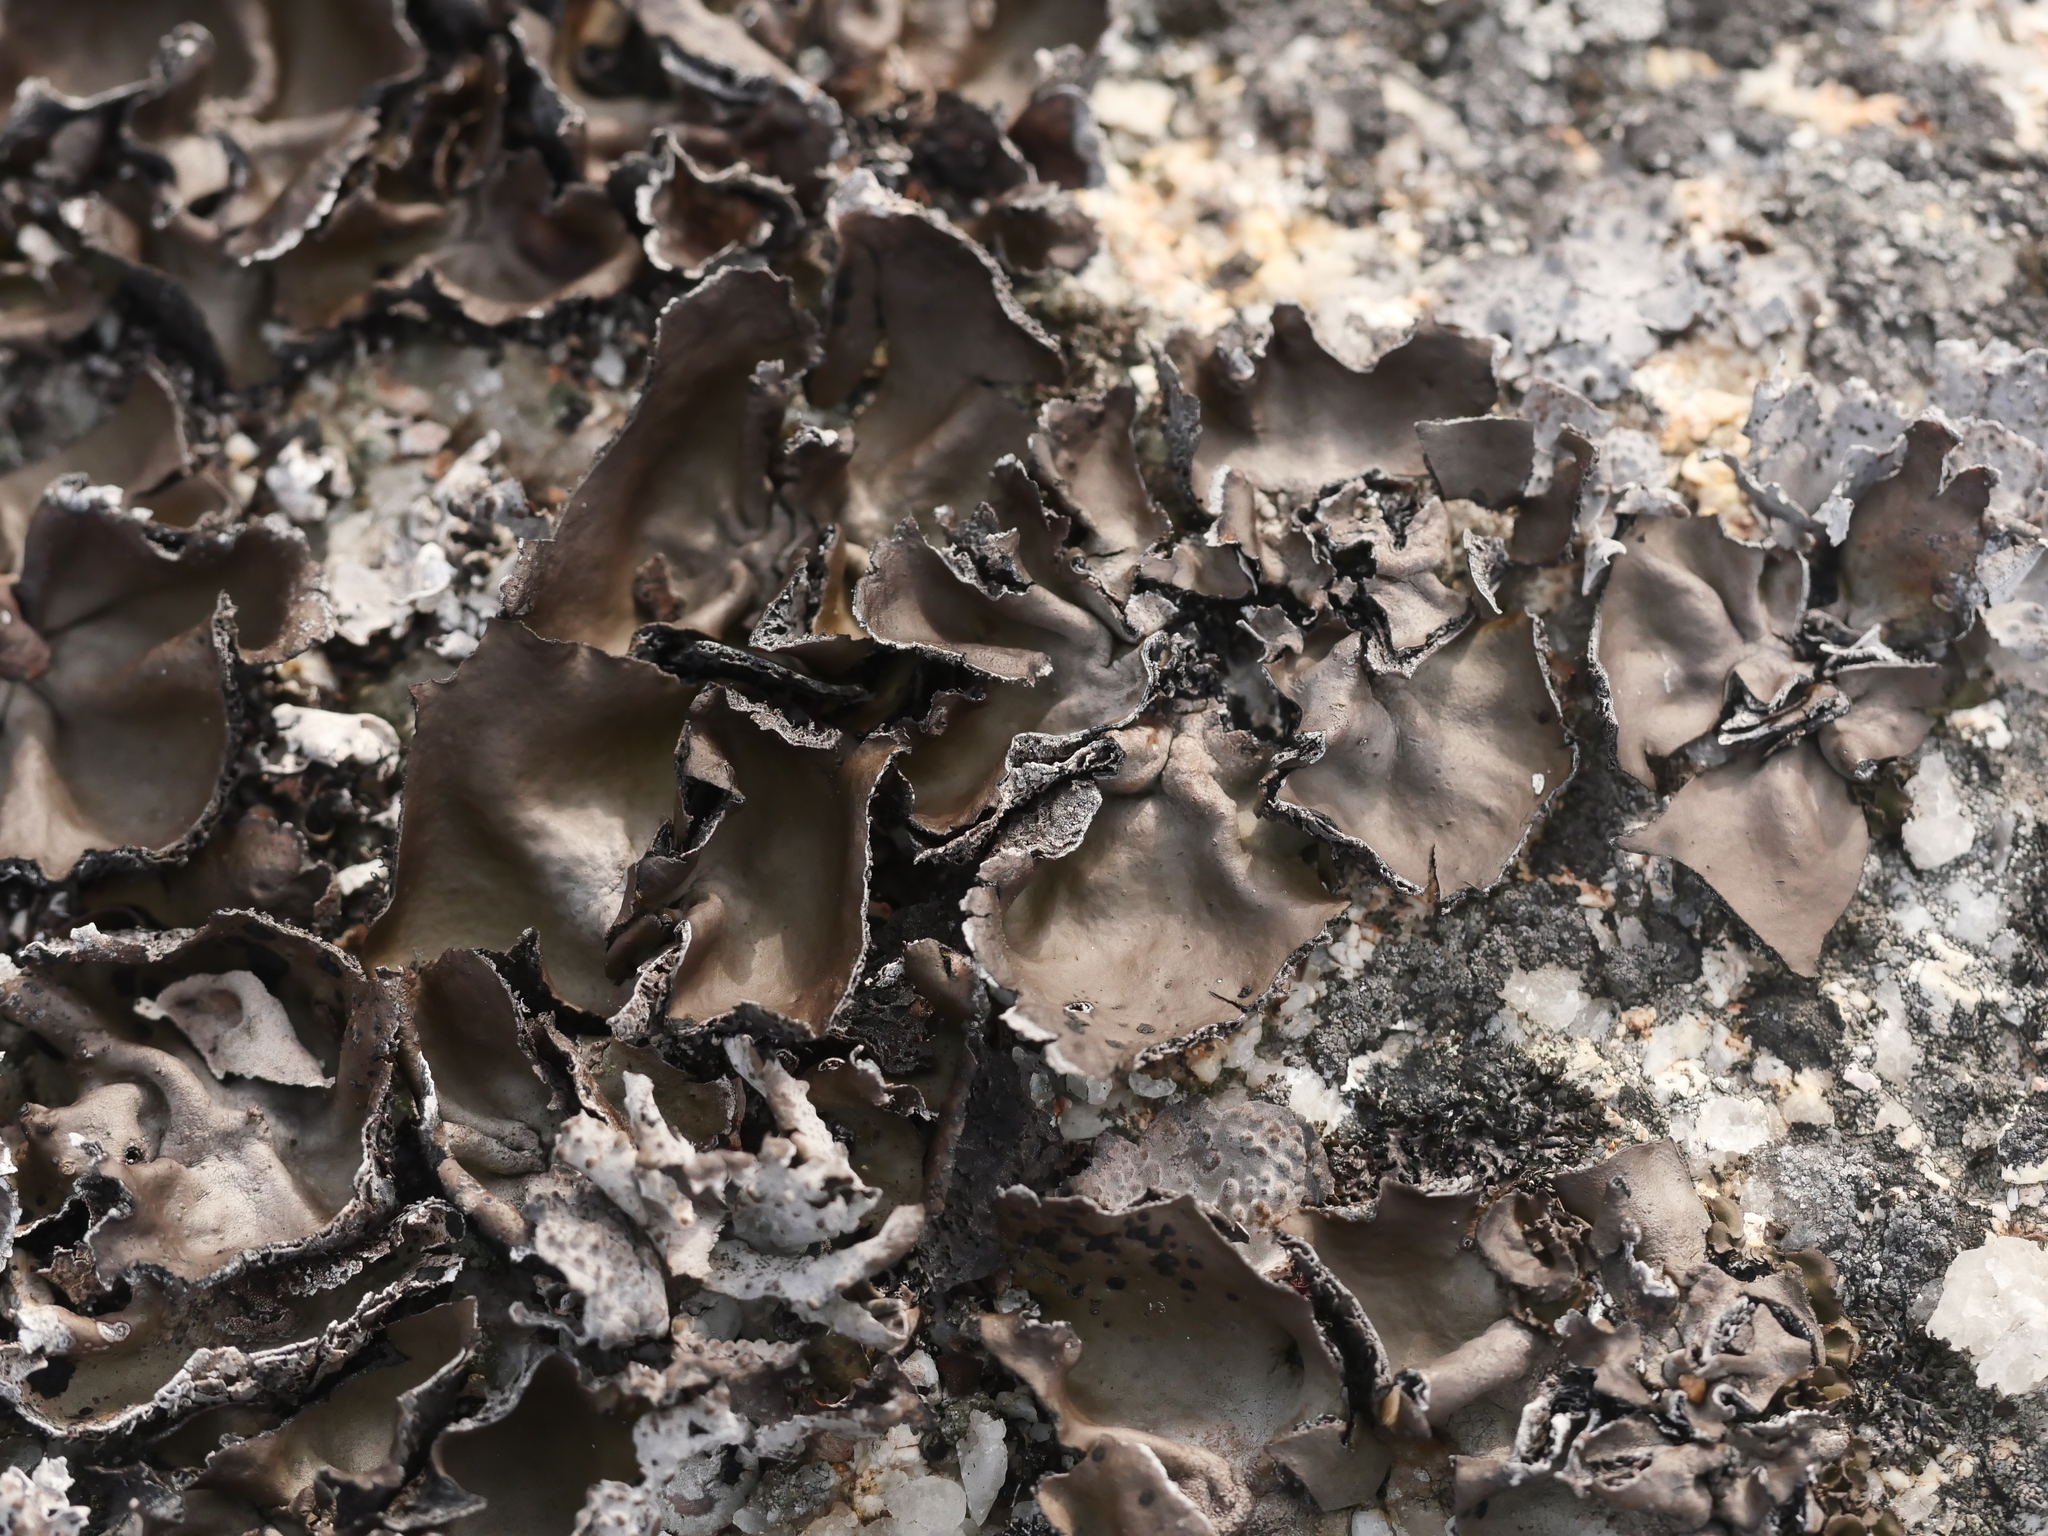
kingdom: Fungi
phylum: Ascomycota
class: Lecanoromycetes
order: Umbilicariales
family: Umbilicariaceae
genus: Umbilicaria
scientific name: Umbilicaria muhlenbergii
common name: Lesser rocktripe
